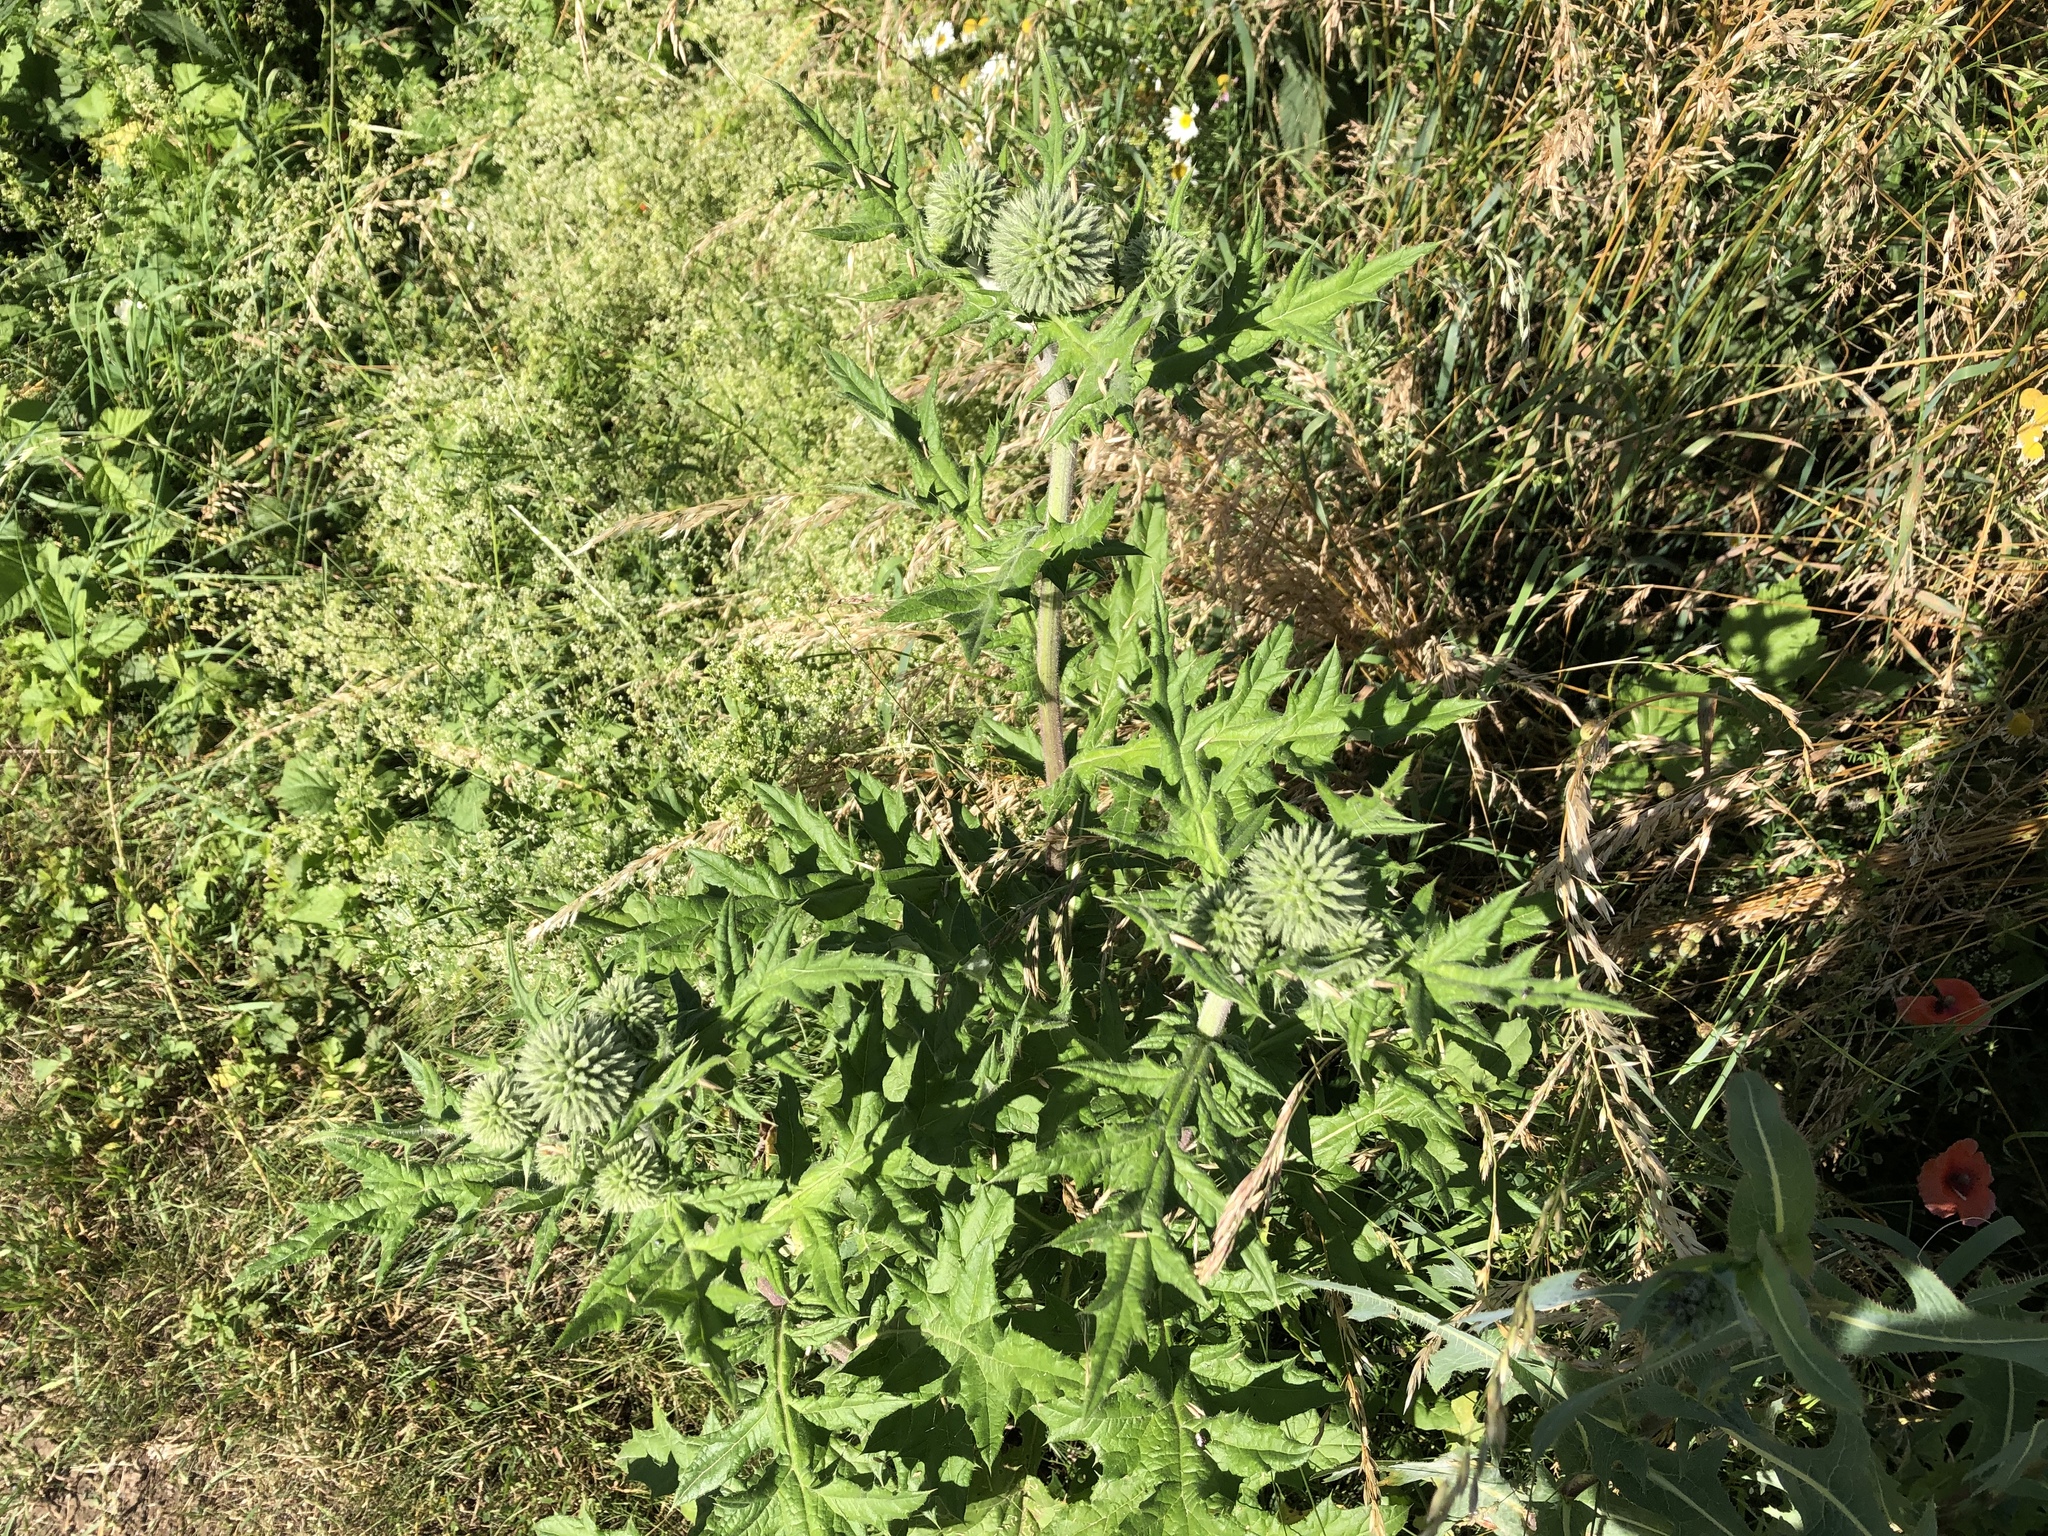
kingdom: Plantae
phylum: Tracheophyta
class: Magnoliopsida
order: Asterales
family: Asteraceae
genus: Echinops
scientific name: Echinops sphaerocephalus
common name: Glandular globe-thistle
